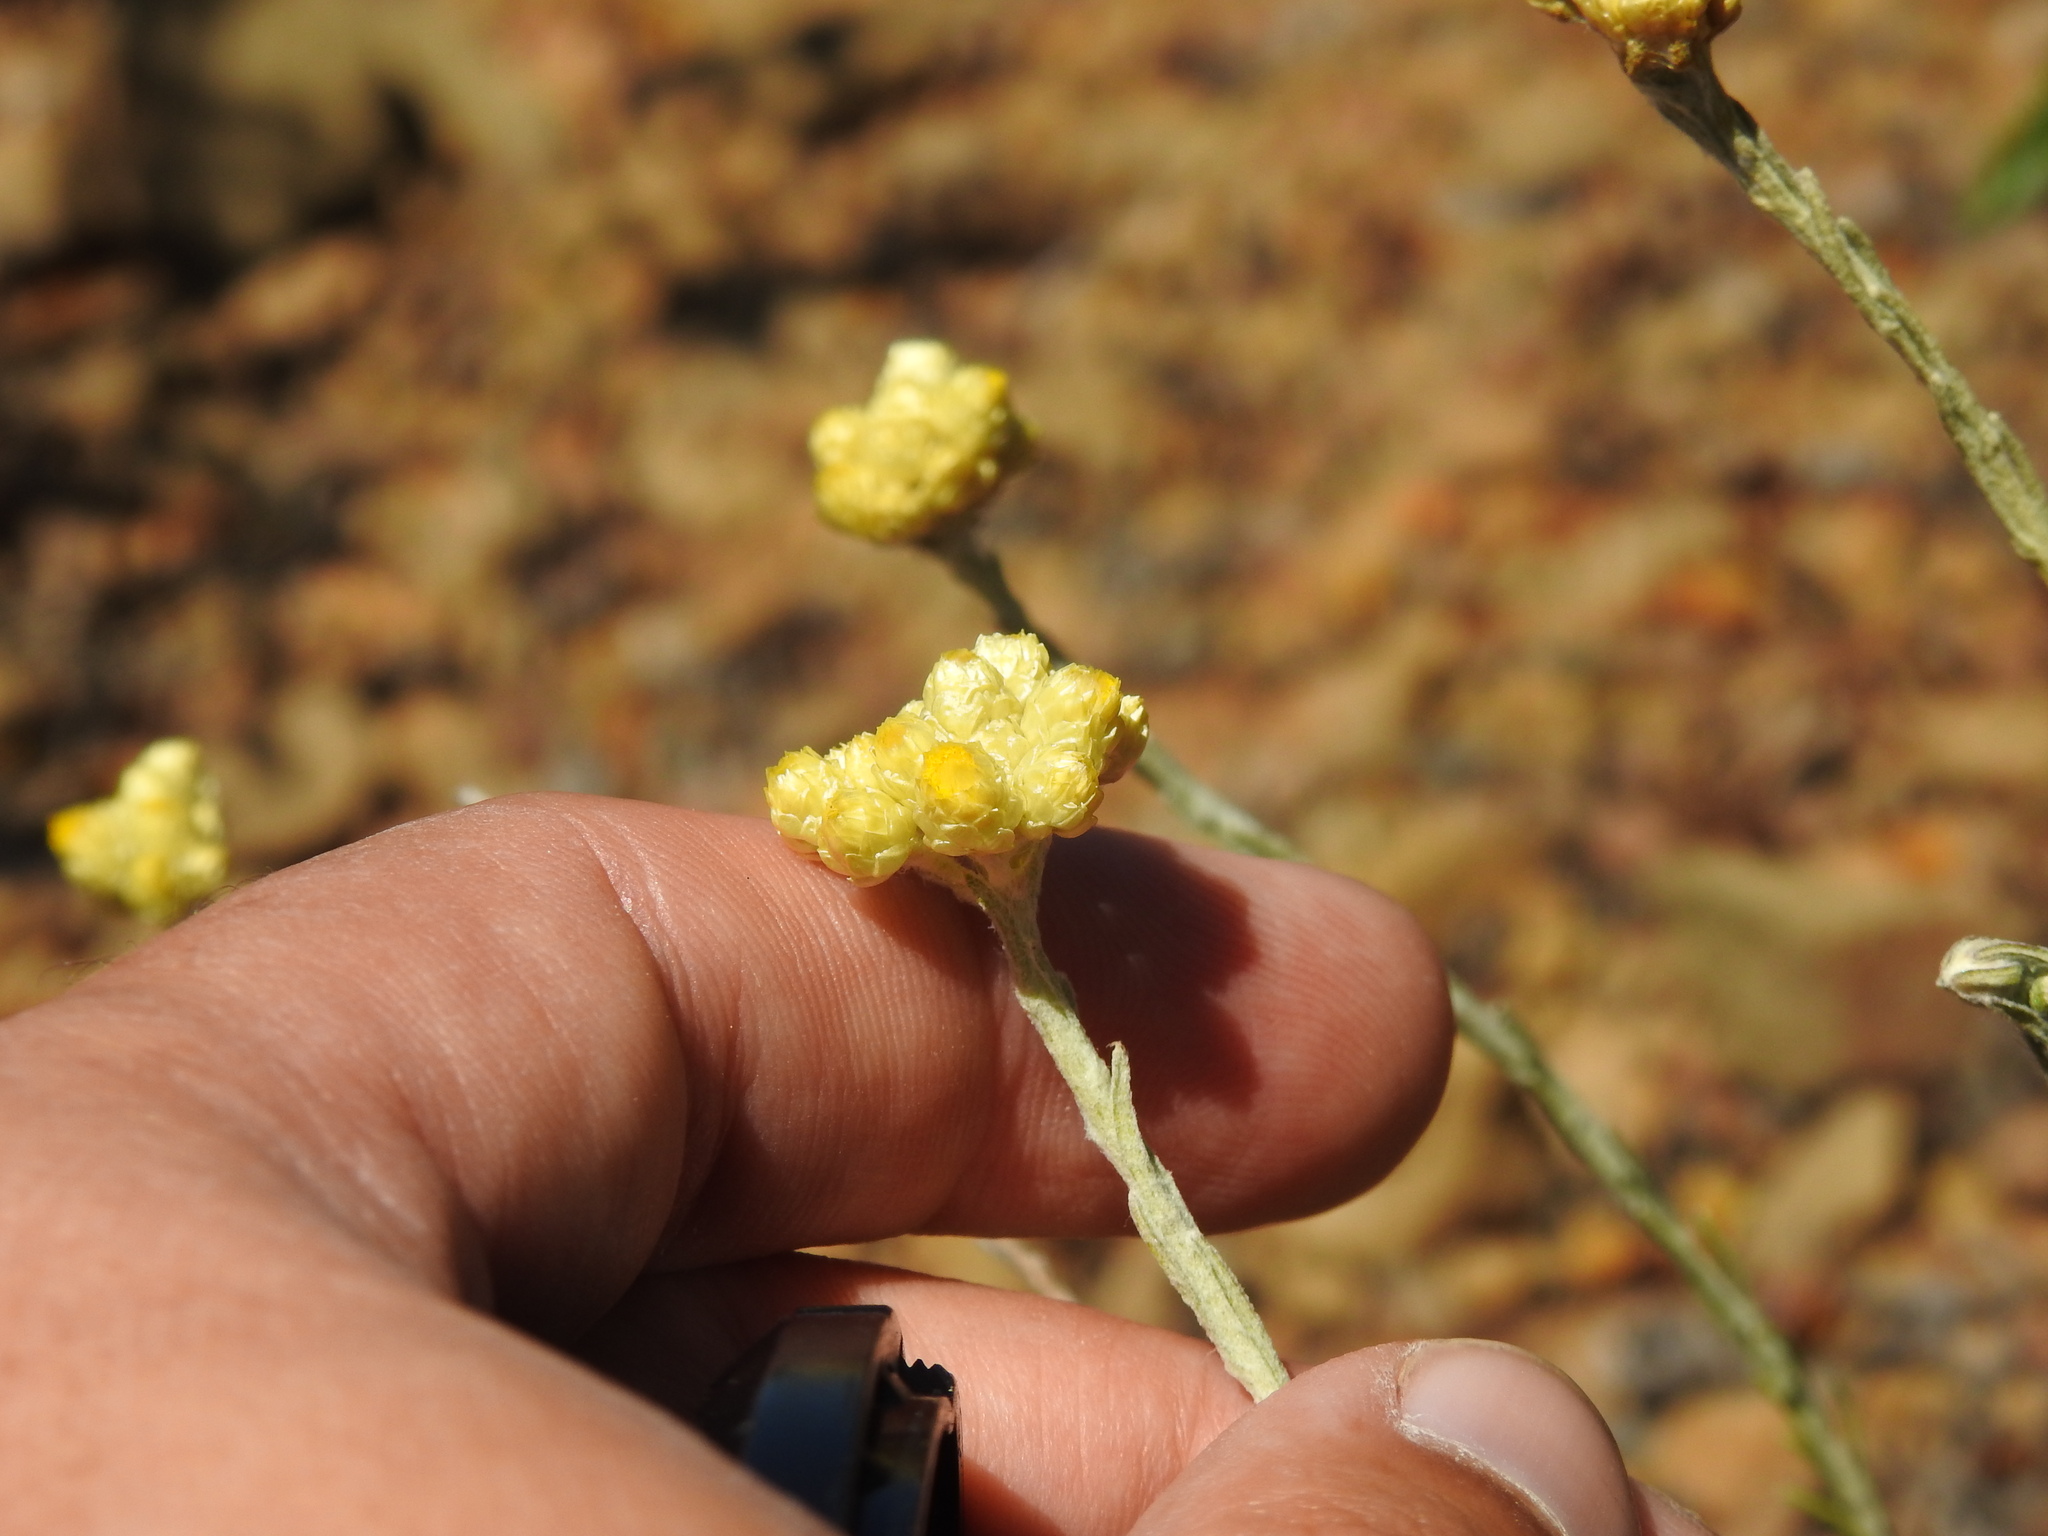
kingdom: Plantae
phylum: Tracheophyta
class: Magnoliopsida
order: Asterales
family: Asteraceae
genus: Helichrysum
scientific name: Helichrysum stoechas
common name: Goldilocks
